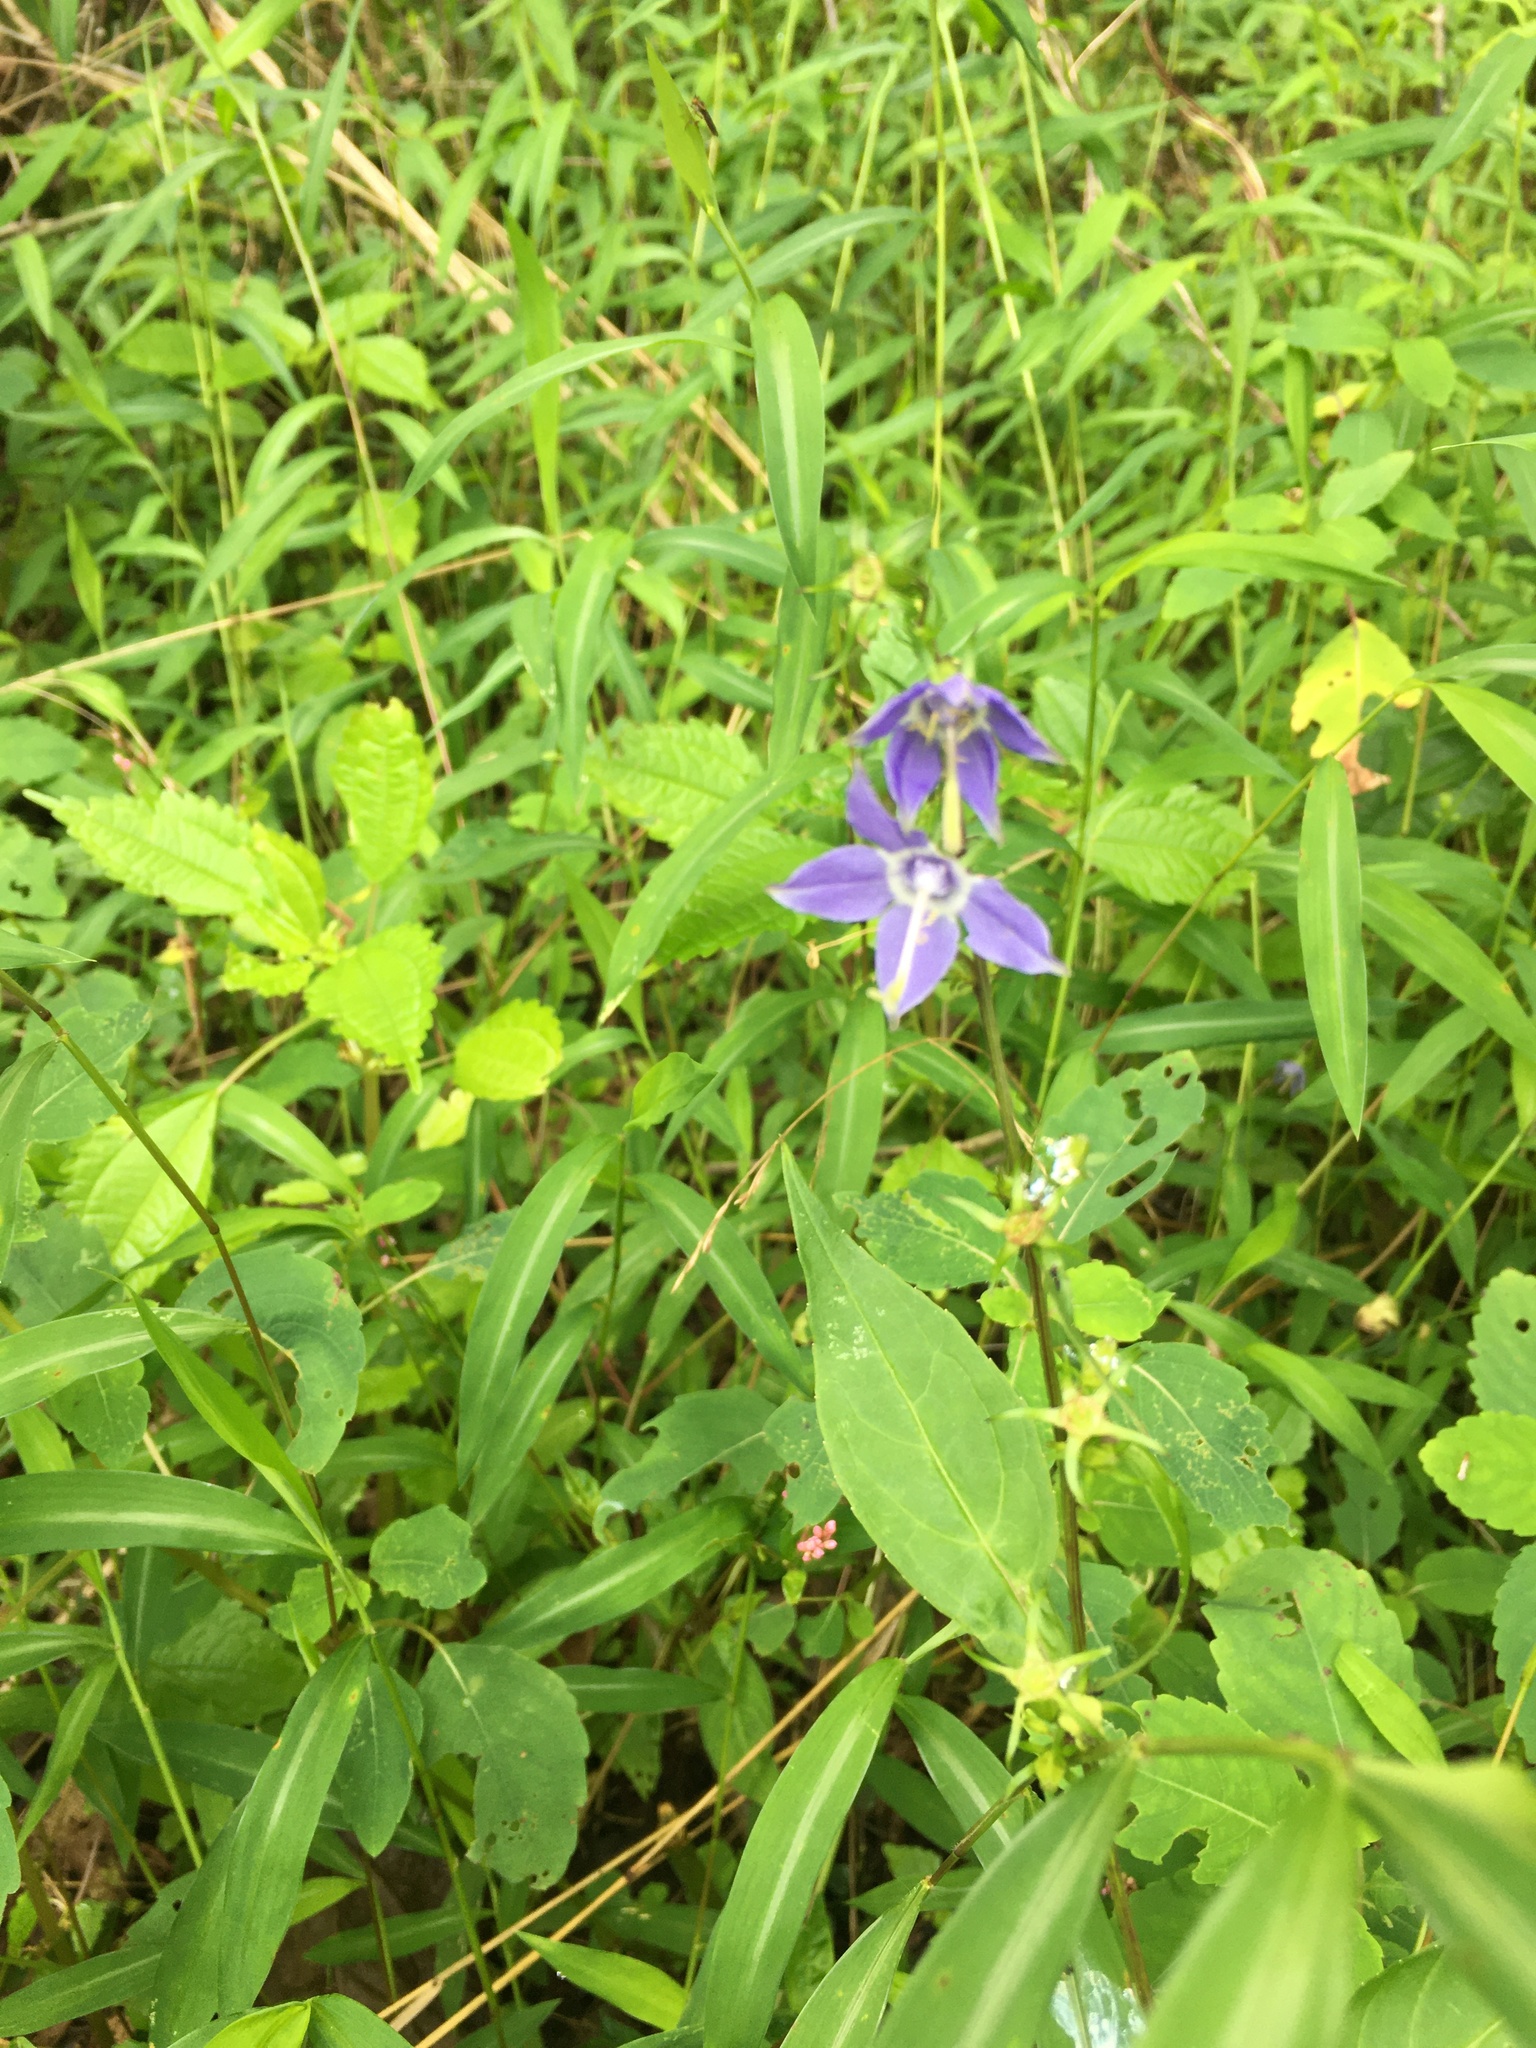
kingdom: Plantae
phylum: Tracheophyta
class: Magnoliopsida
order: Asterales
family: Campanulaceae
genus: Campanulastrum
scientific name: Campanulastrum americanum
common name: American bellflower
